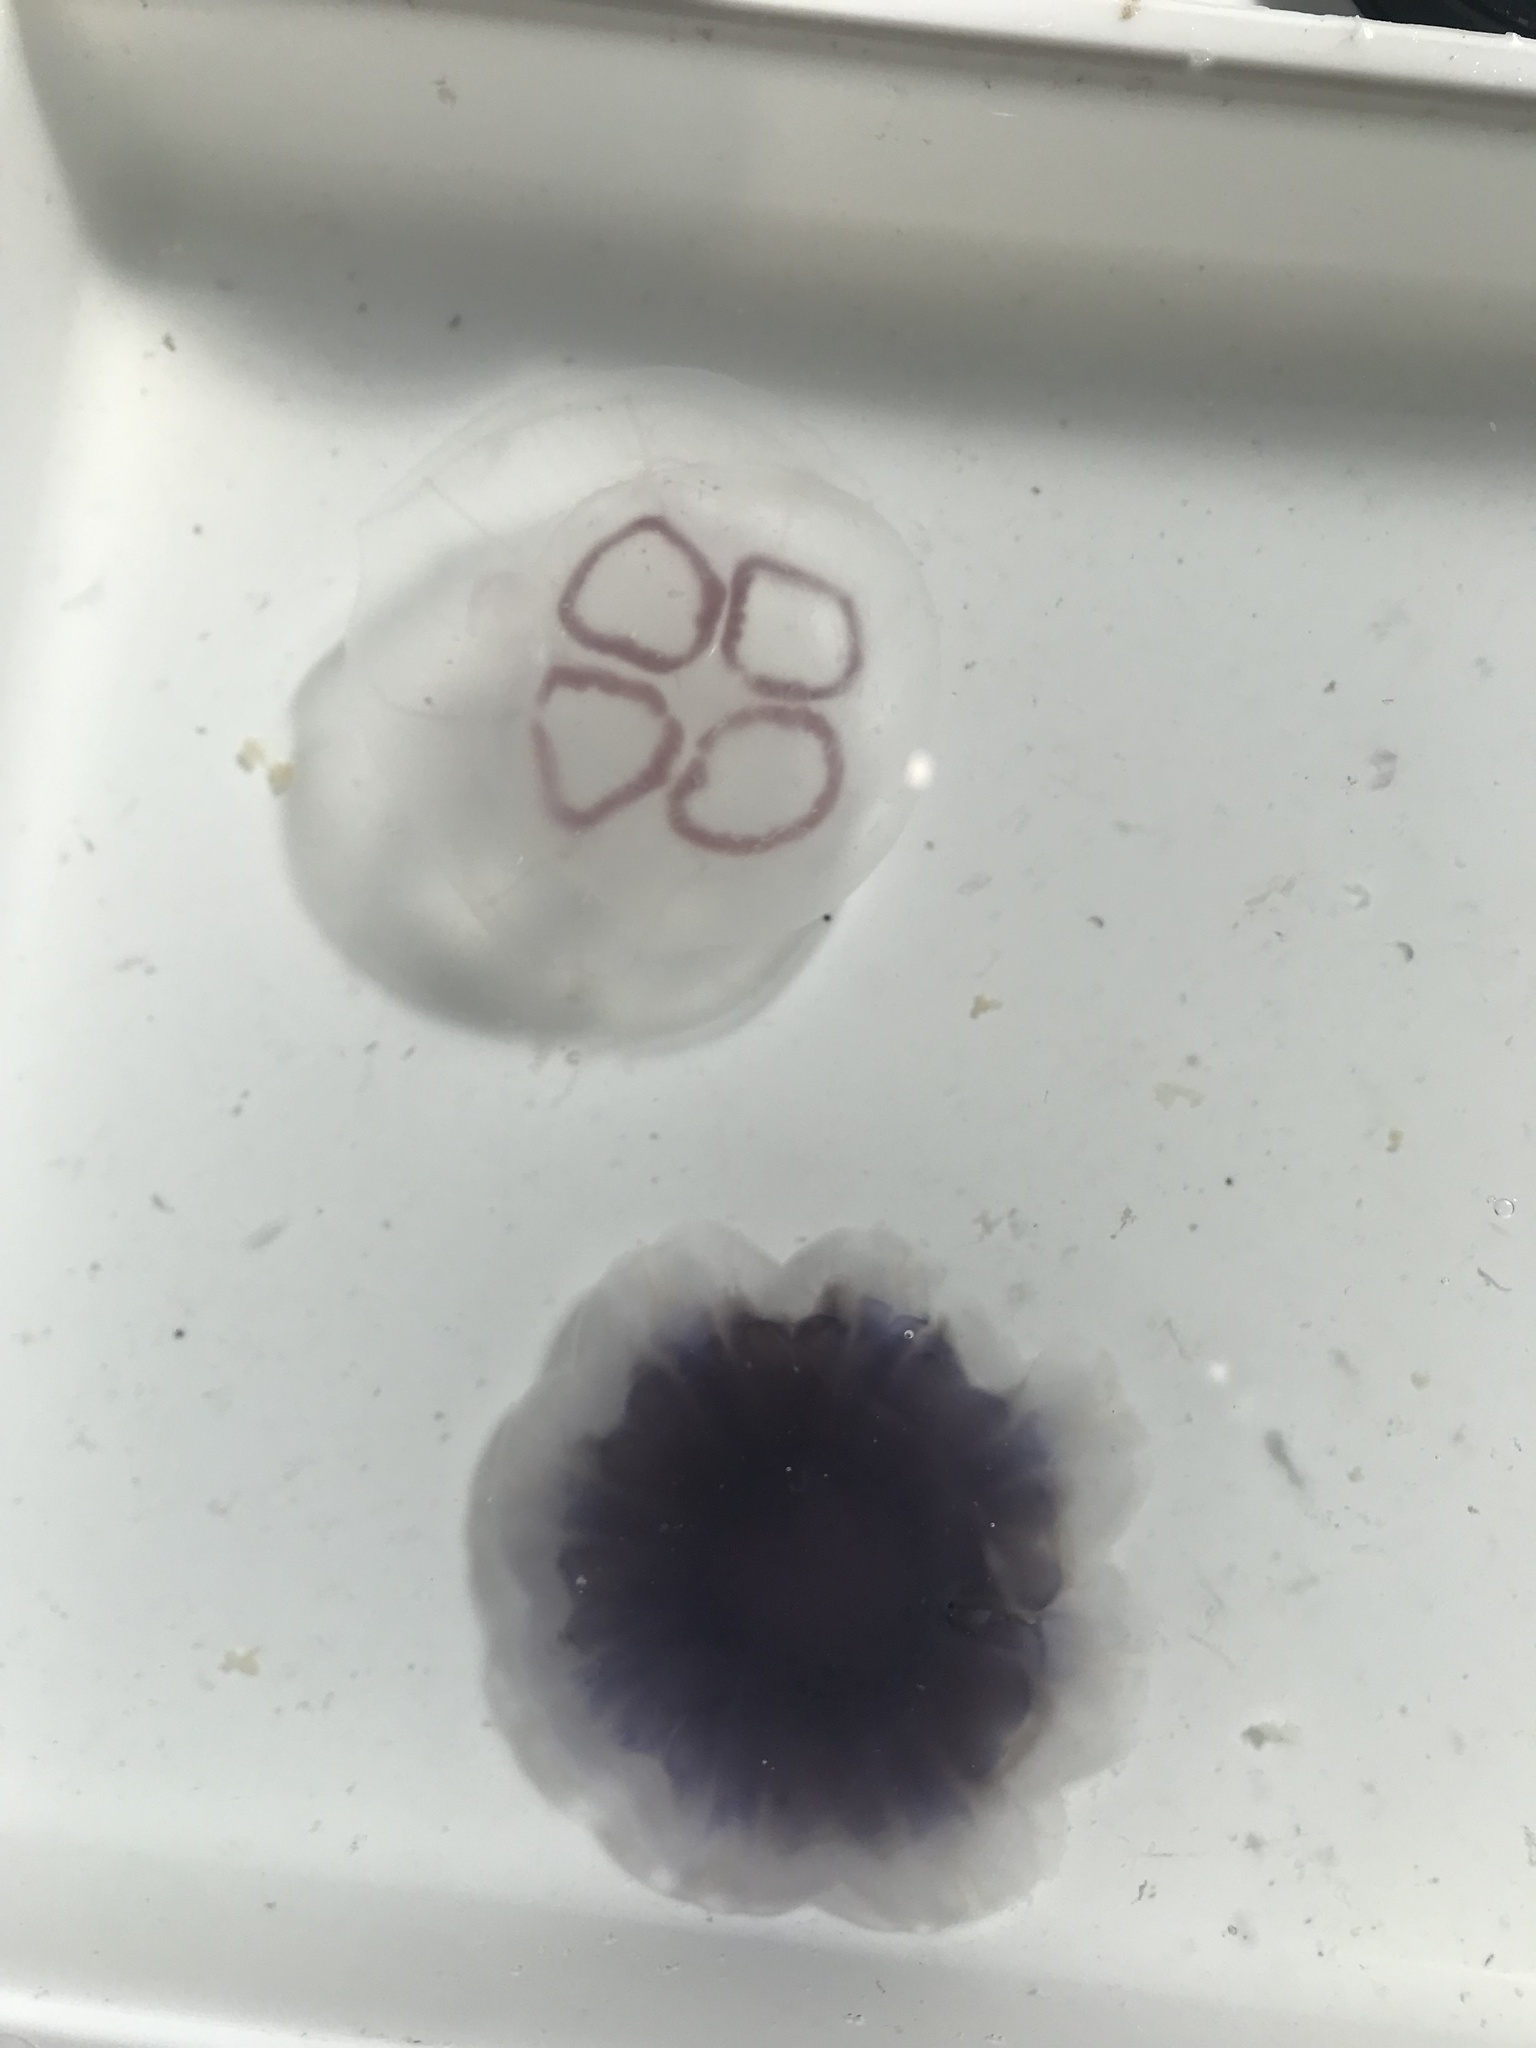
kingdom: Animalia
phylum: Cnidaria
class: Scyphozoa
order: Semaeostomeae
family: Cyaneidae
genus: Cyanea
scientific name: Cyanea lamarckii
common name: Blue jellyfish
